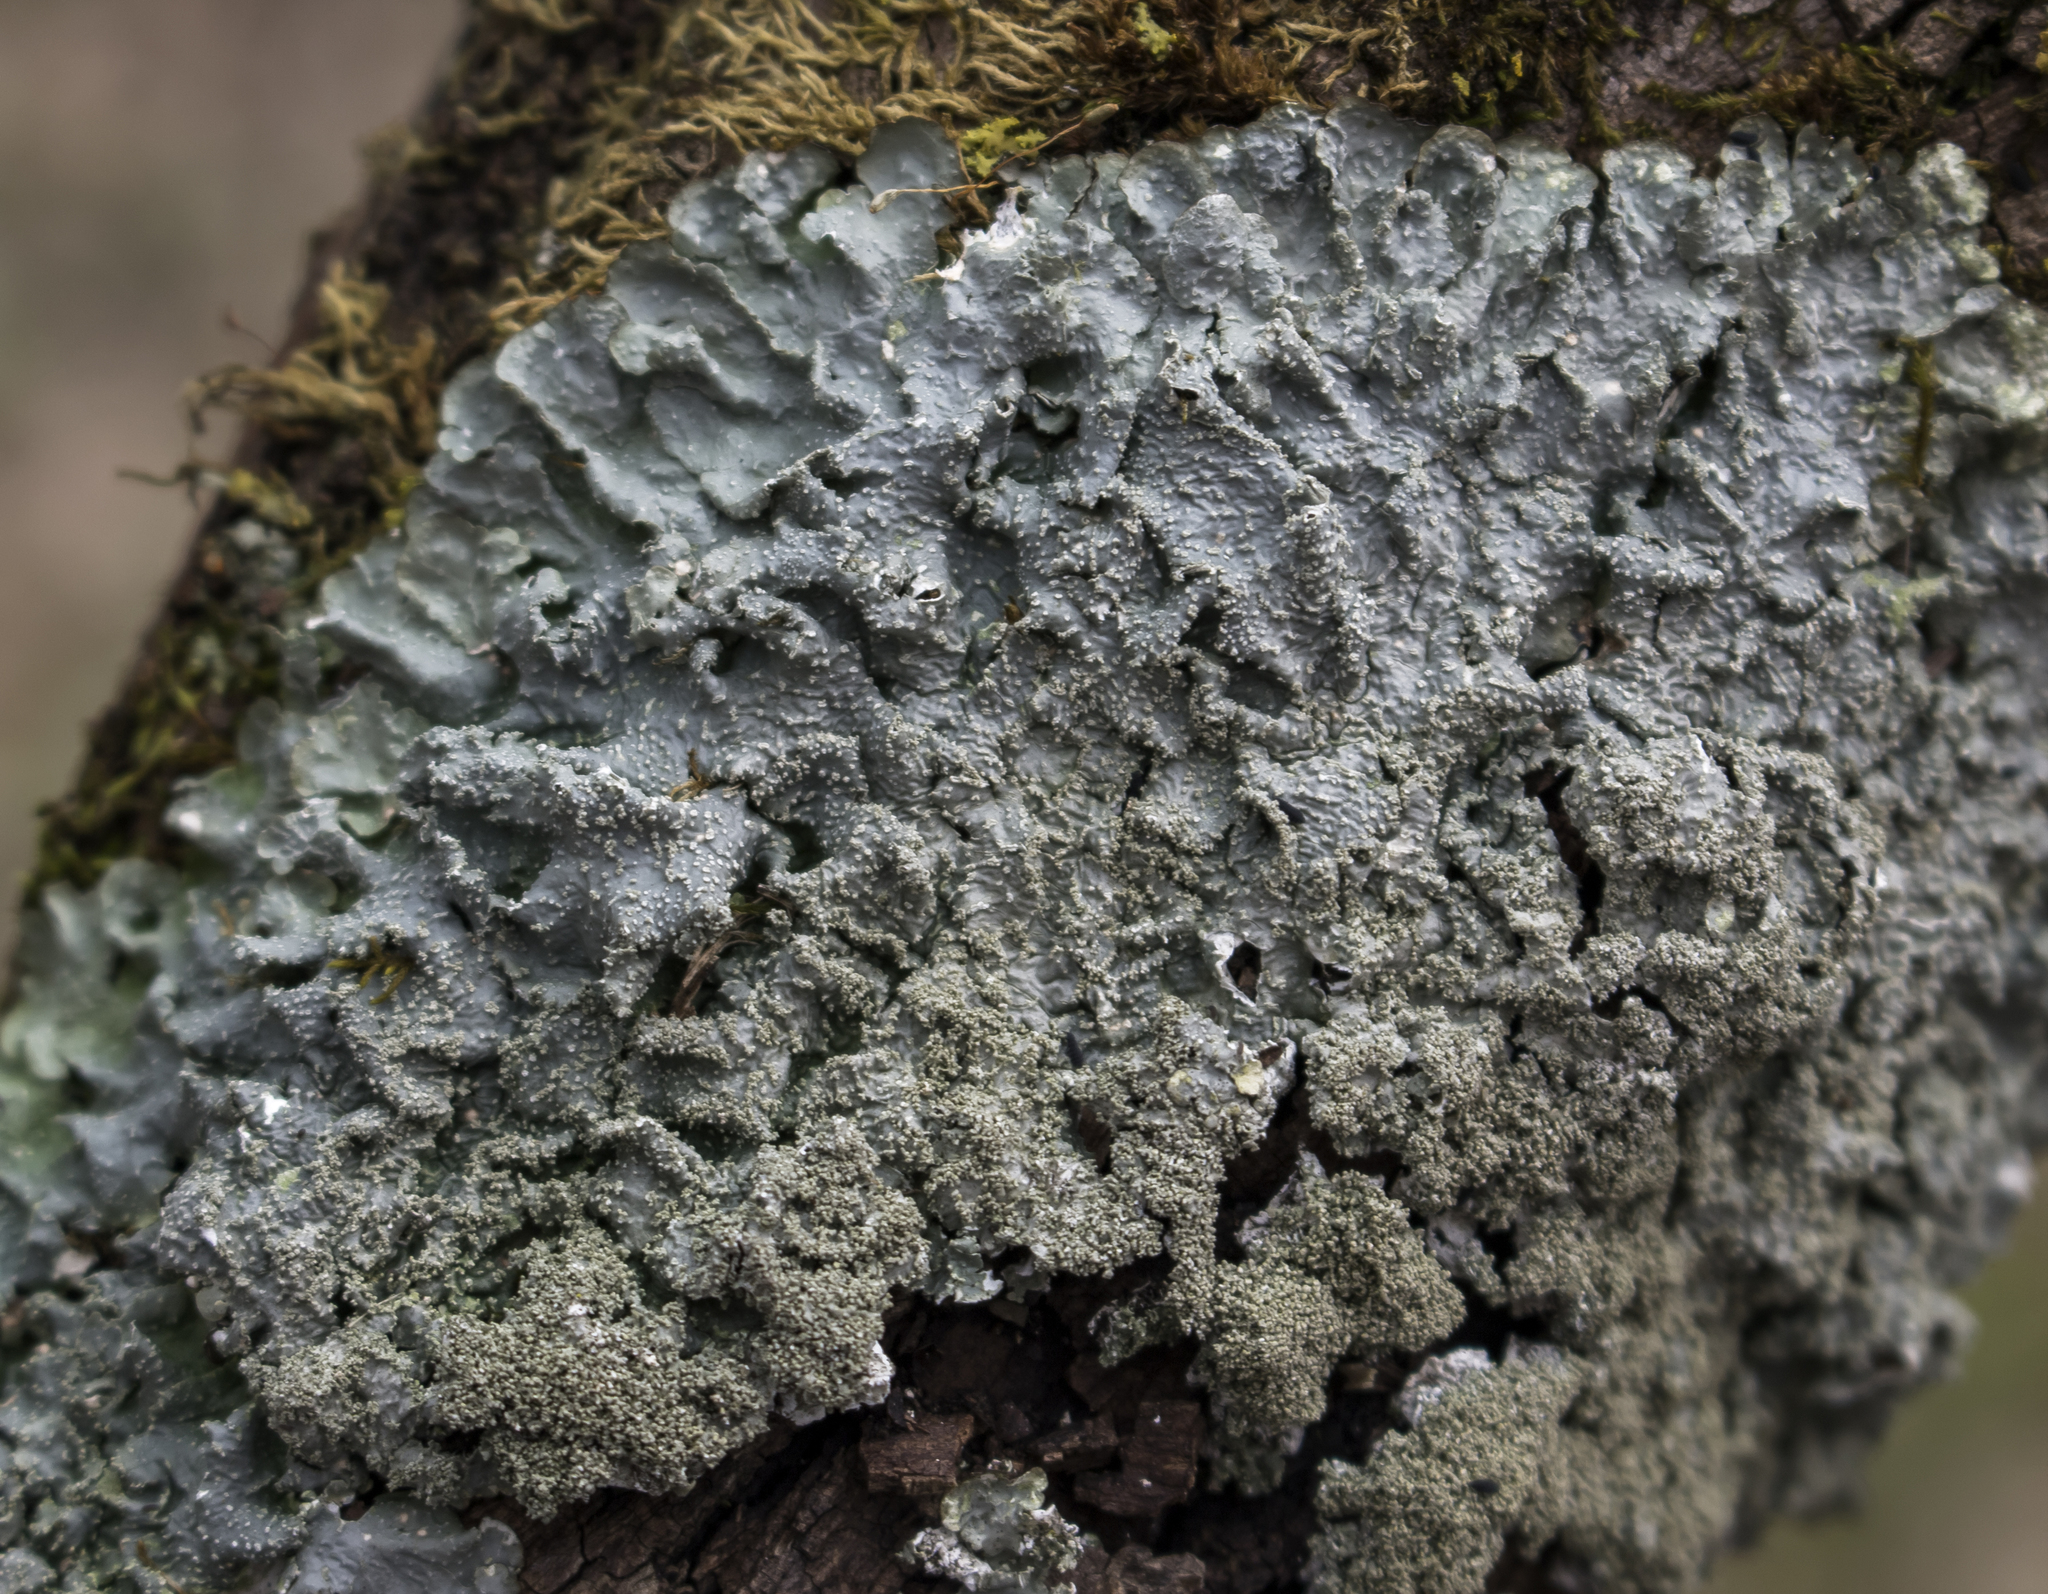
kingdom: Fungi
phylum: Ascomycota
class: Lecanoromycetes
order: Lecanorales
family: Parmeliaceae
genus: Punctelia
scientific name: Punctelia rudecta
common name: Rough speckled shield lichen
